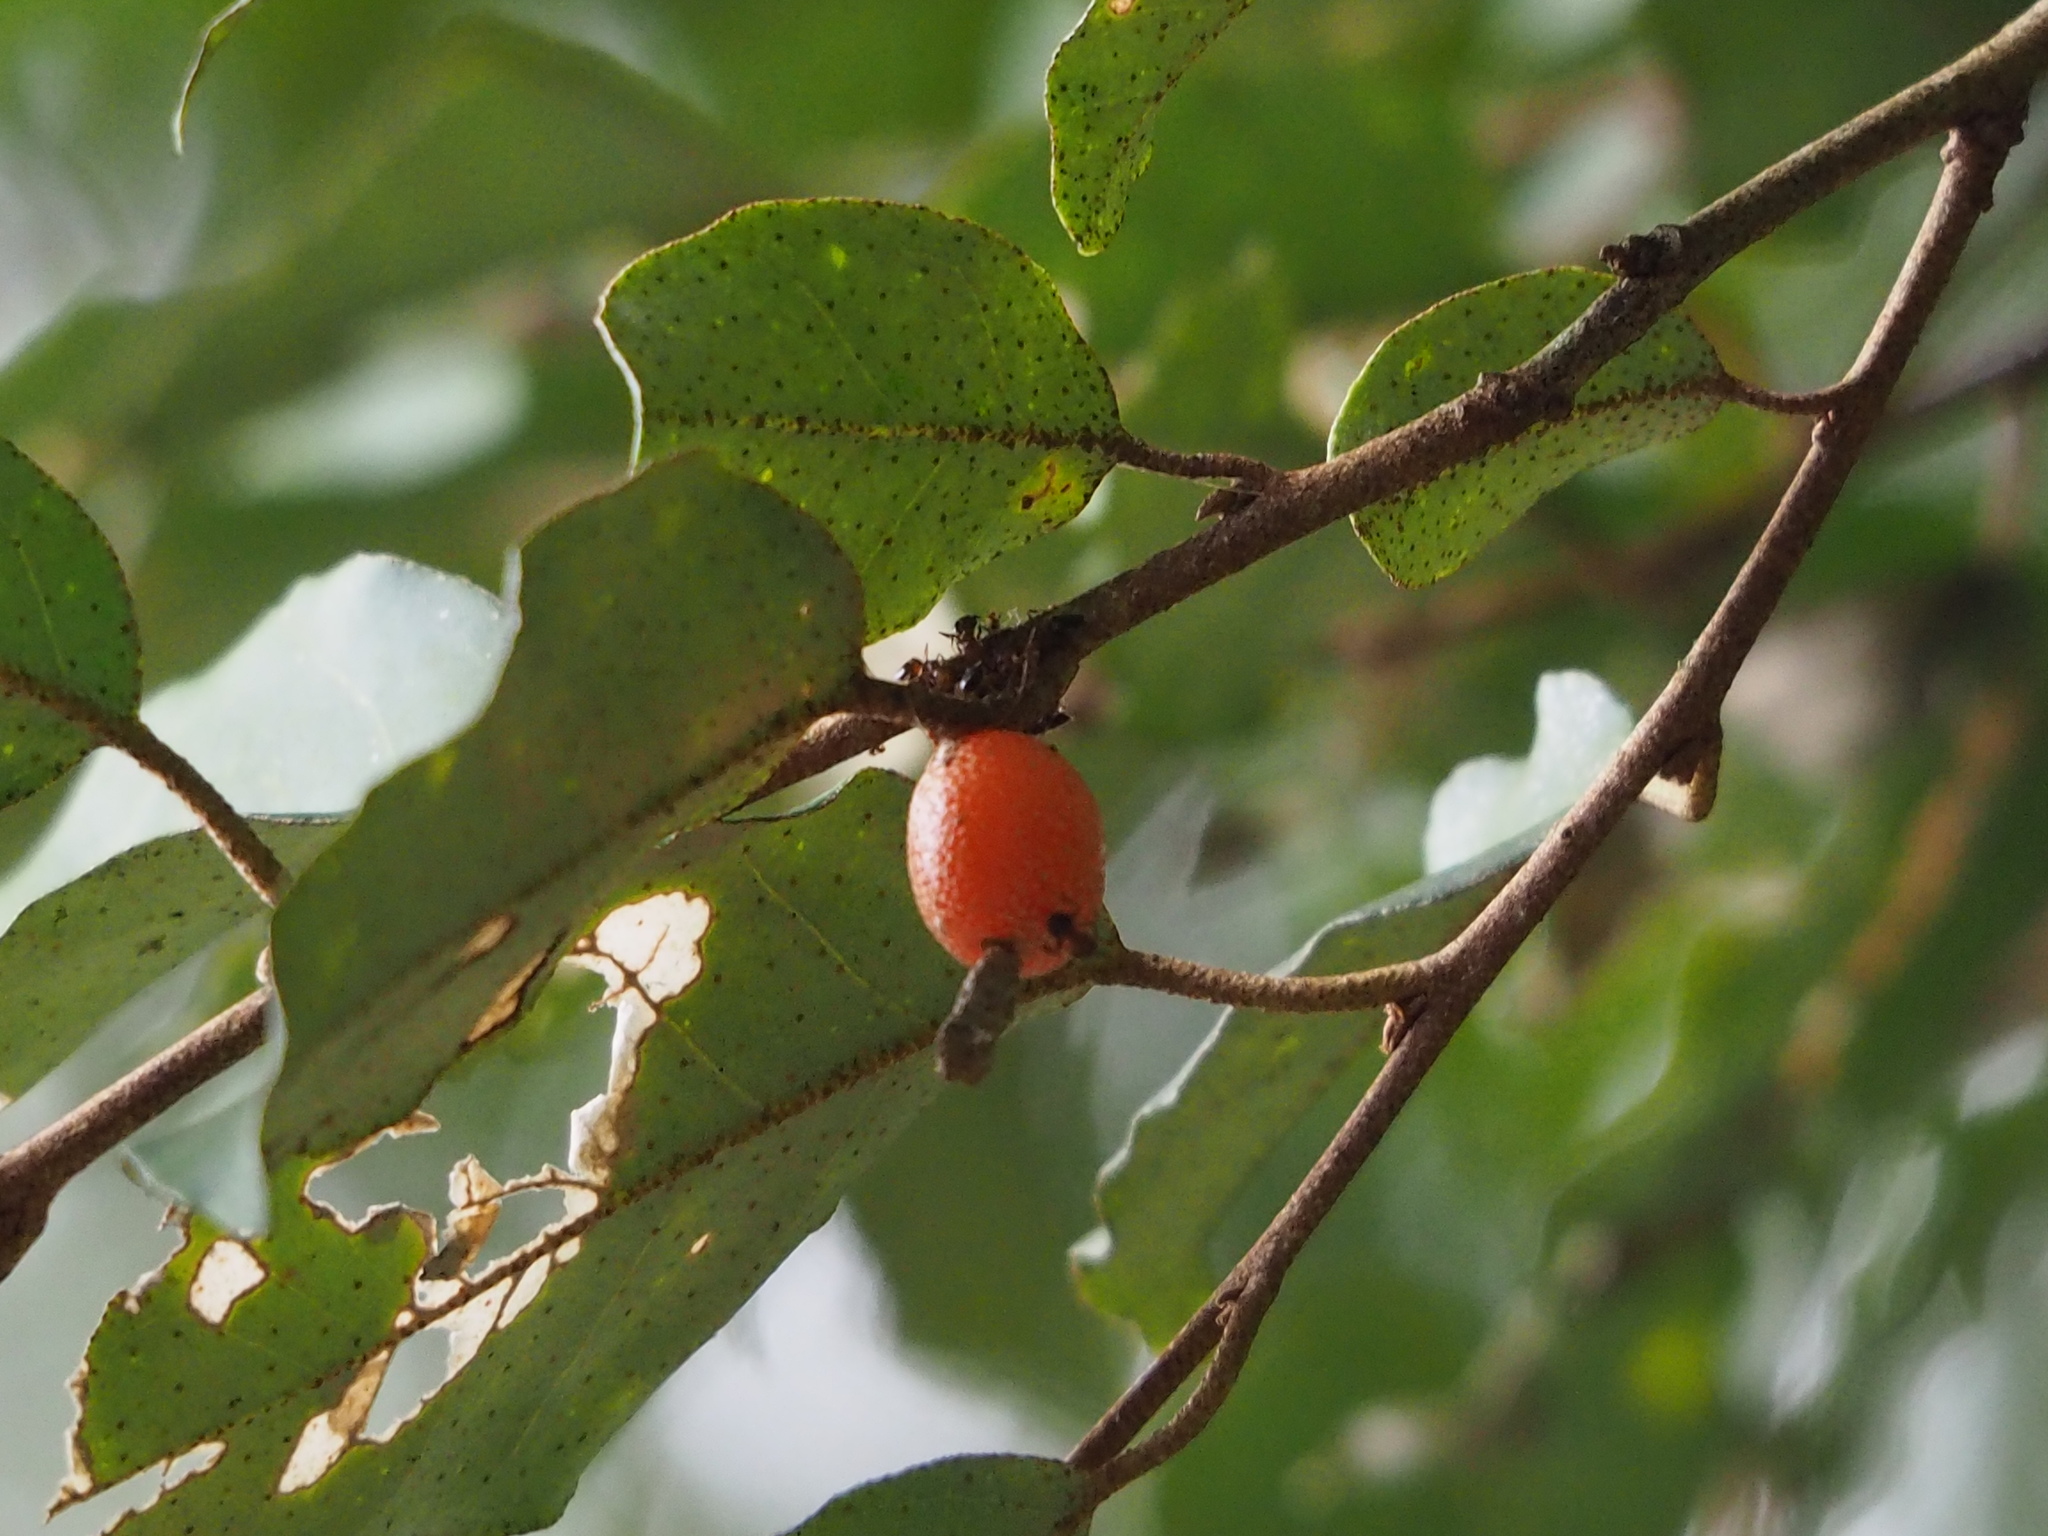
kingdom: Plantae
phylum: Tracheophyta
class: Magnoliopsida
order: Rosales
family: Elaeagnaceae
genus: Elaeagnus
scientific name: Elaeagnus thunbergii
